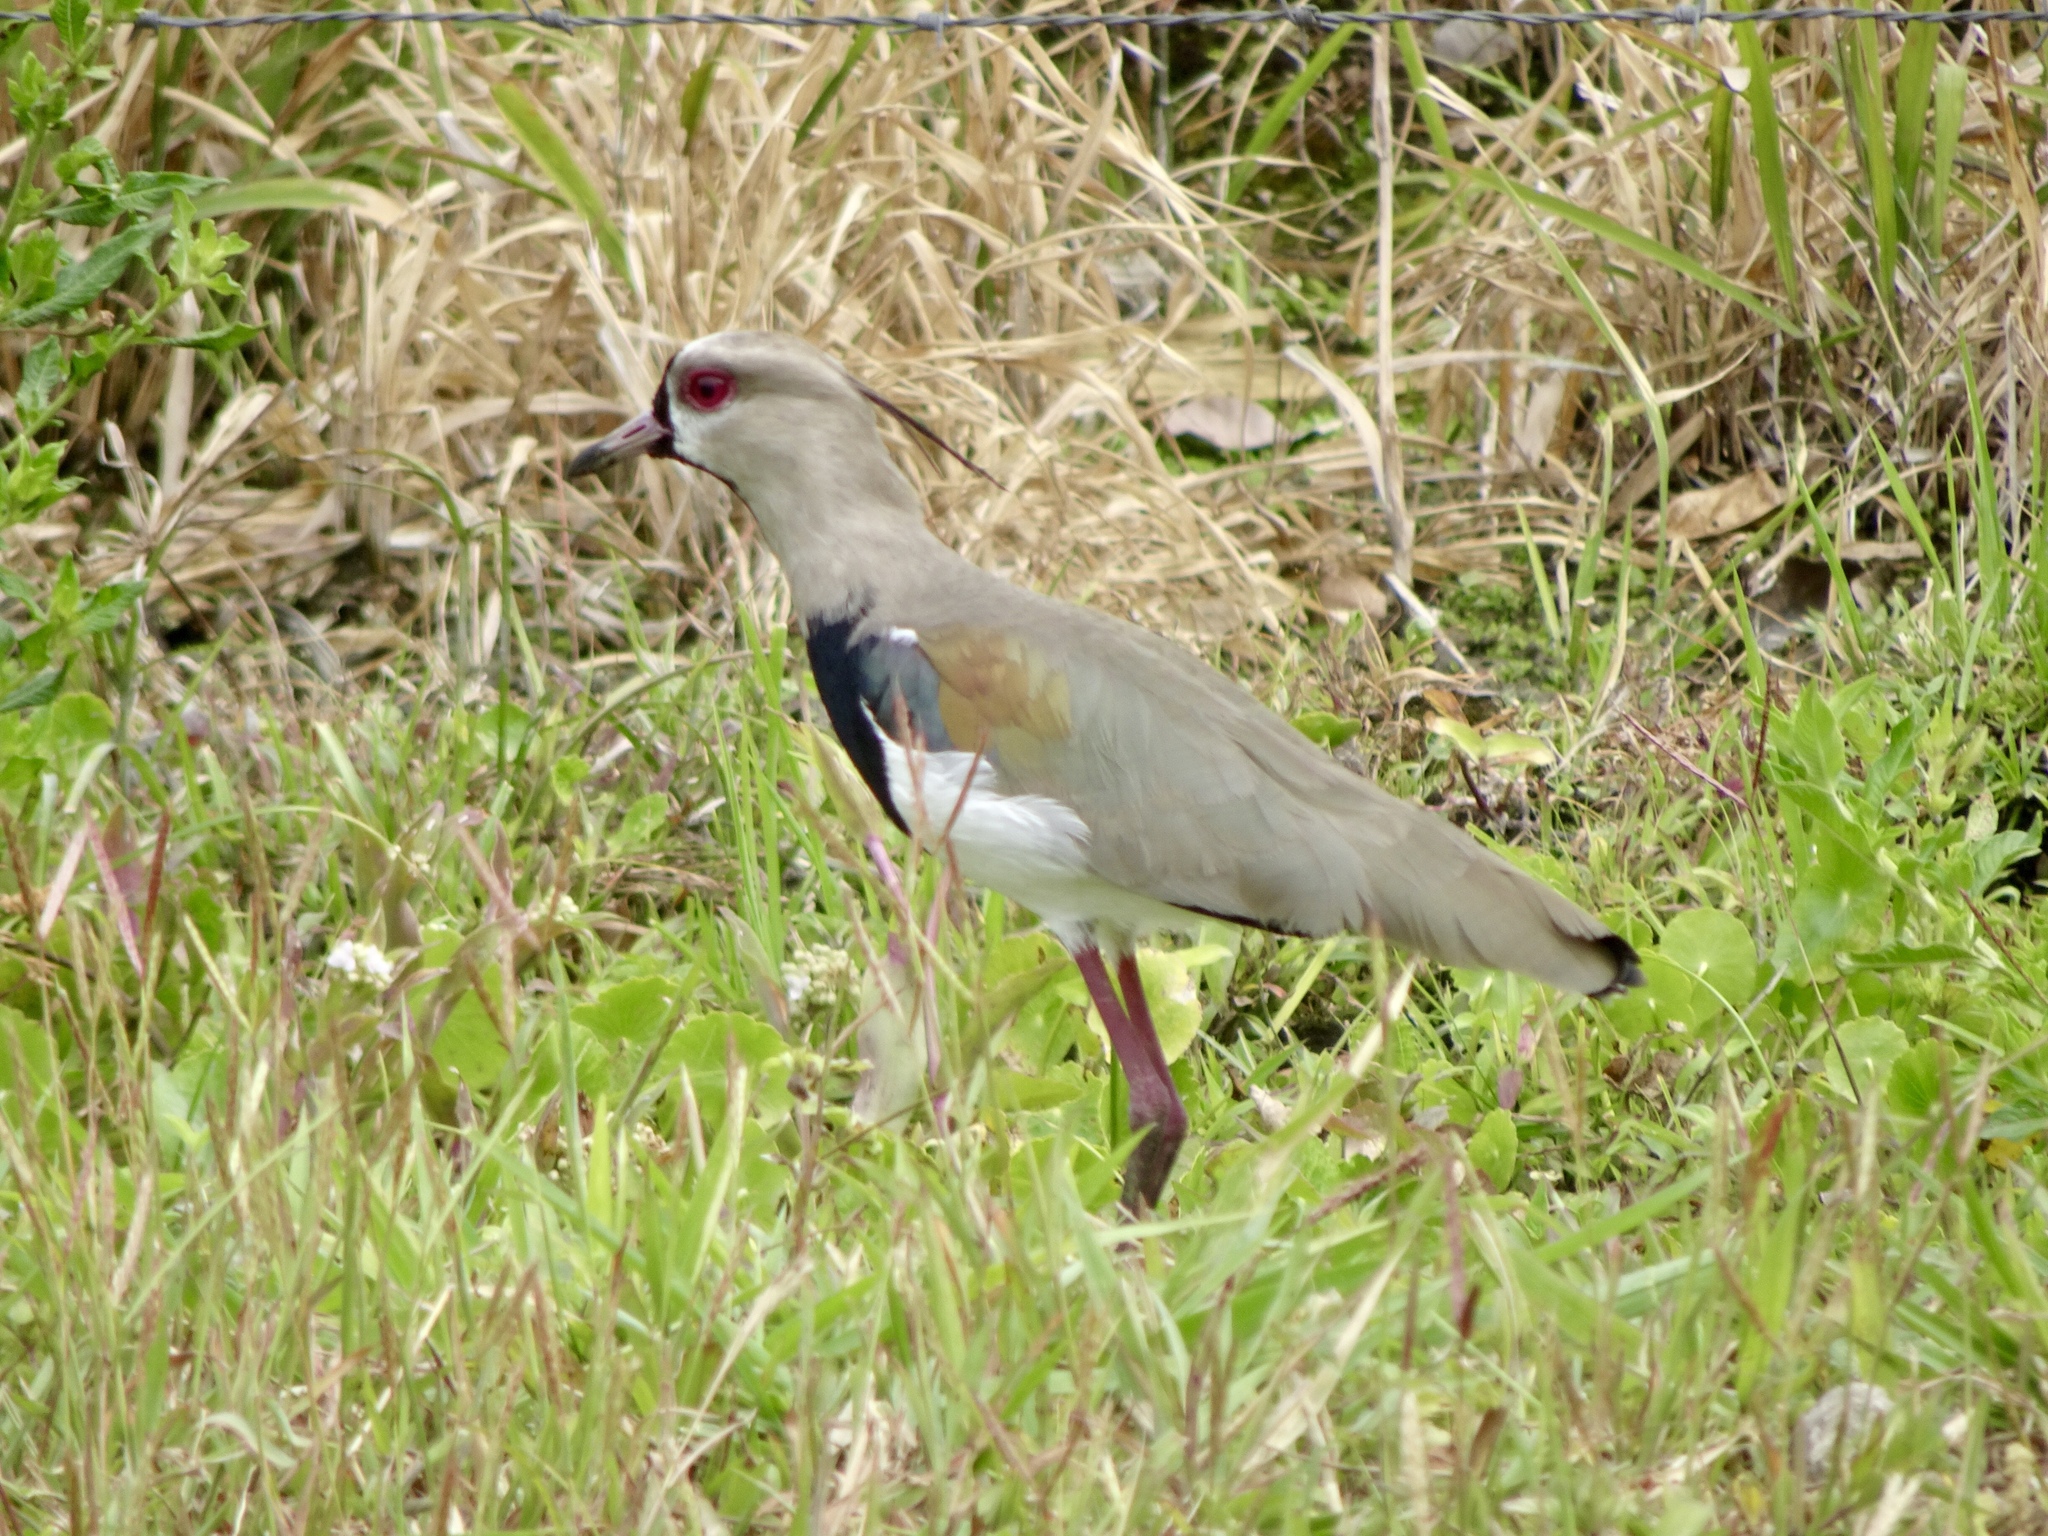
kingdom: Animalia
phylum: Chordata
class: Aves
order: Charadriiformes
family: Charadriidae
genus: Vanellus
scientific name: Vanellus chilensis
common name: Southern lapwing
